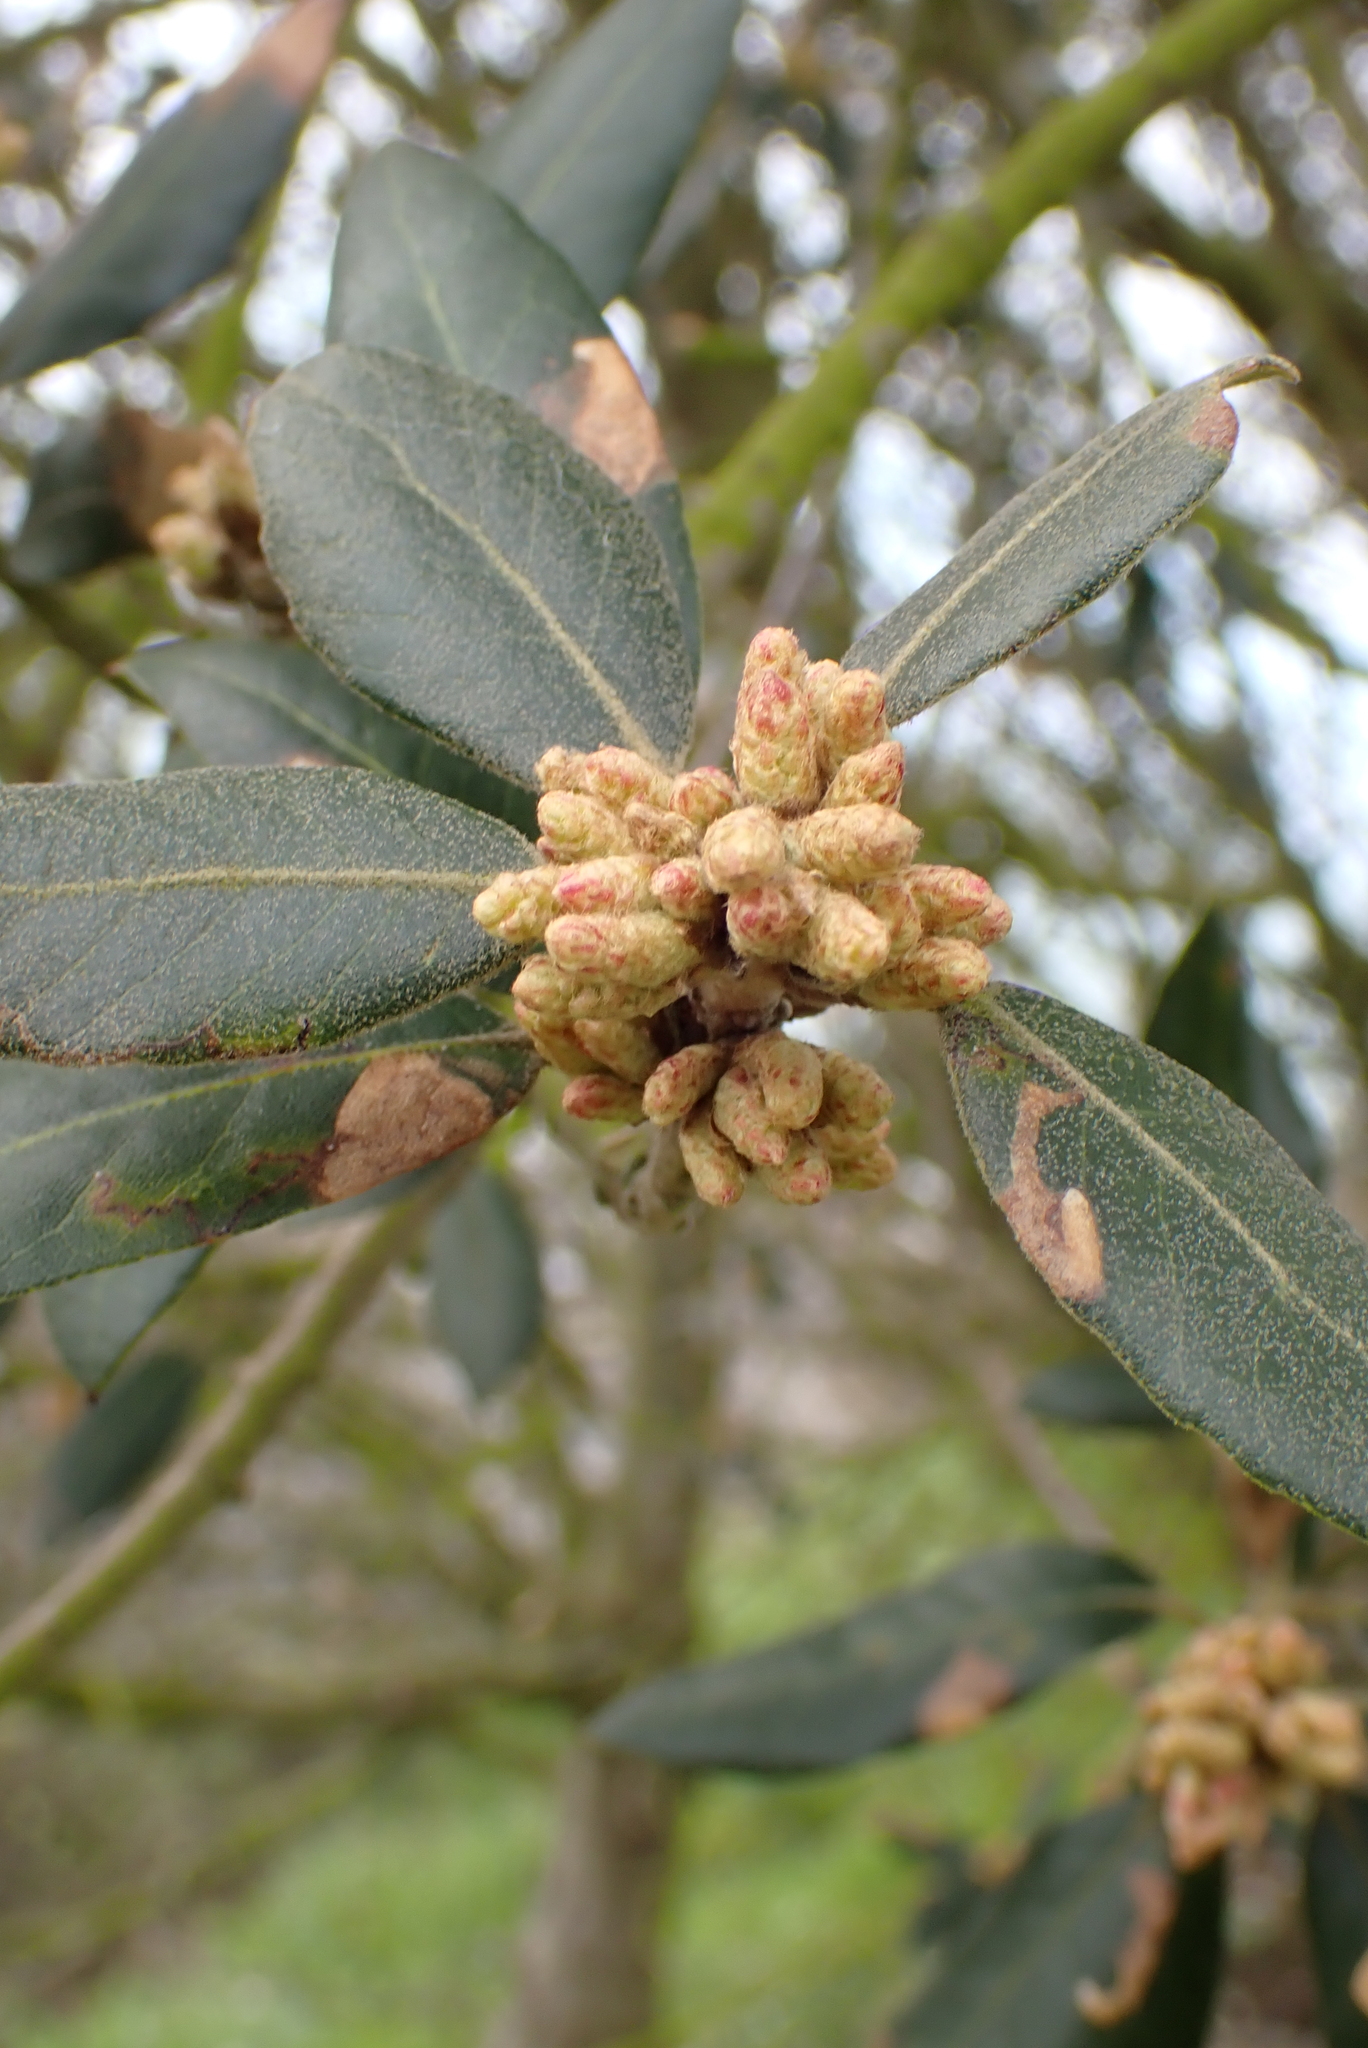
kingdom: Plantae
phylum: Tracheophyta
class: Magnoliopsida
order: Laurales
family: Lauraceae
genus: Laurus
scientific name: Laurus nobilis
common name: Bay
